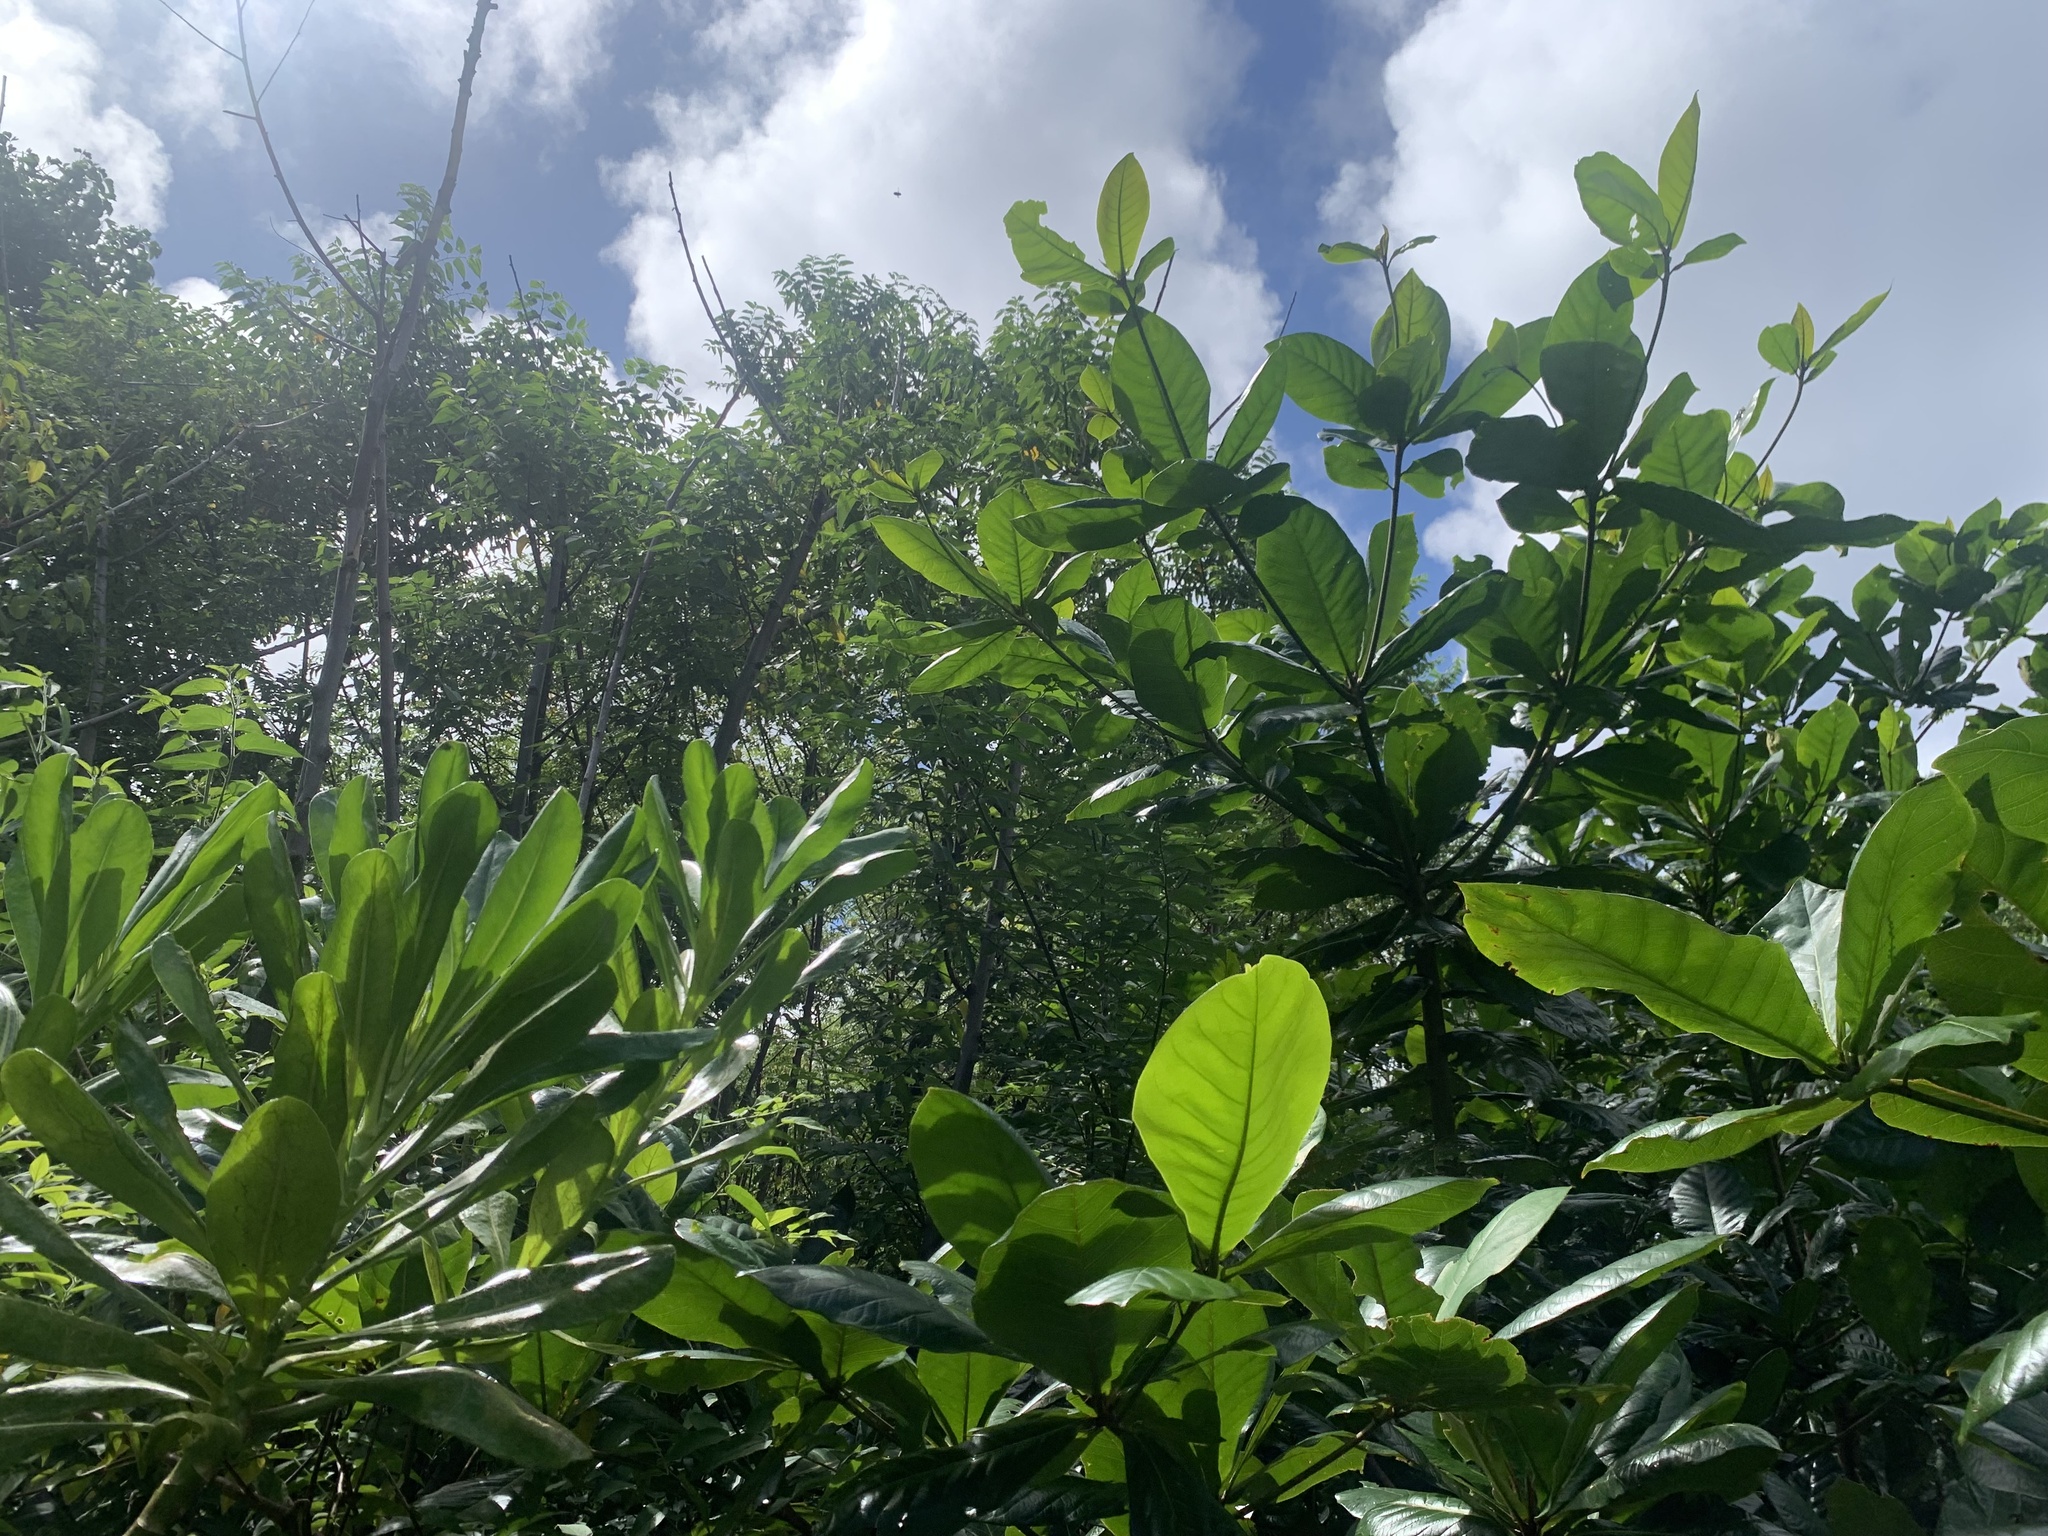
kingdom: Plantae
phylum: Tracheophyta
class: Magnoliopsida
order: Myrtales
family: Combretaceae
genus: Terminalia
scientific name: Terminalia catappa
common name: Tropical almond
